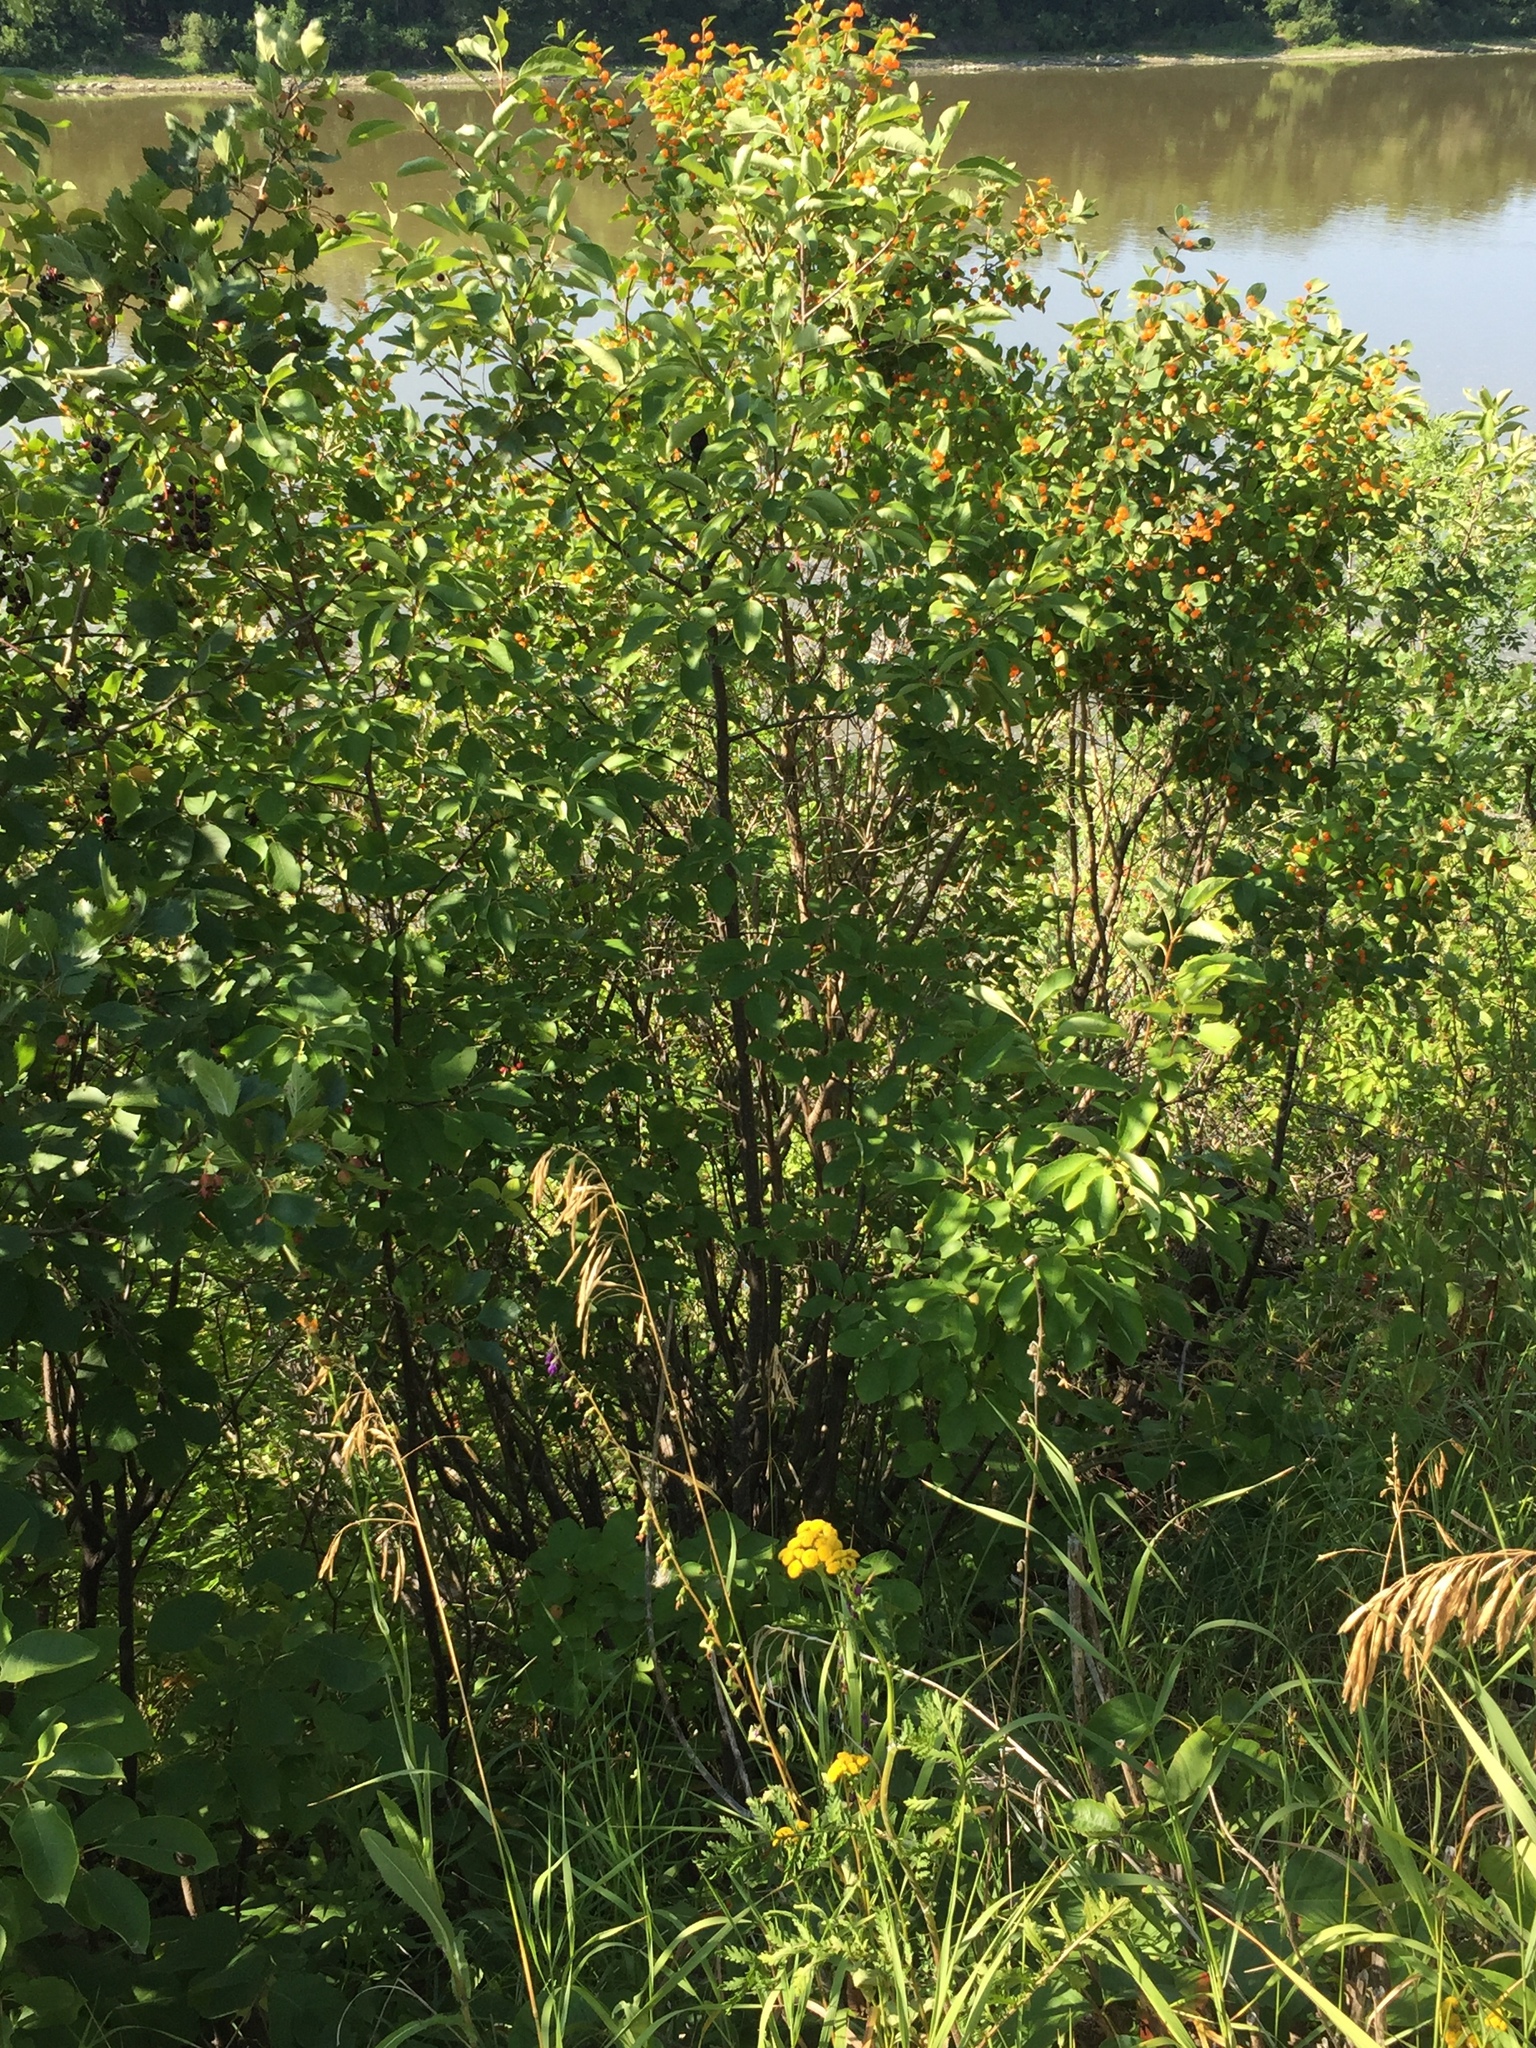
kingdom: Plantae
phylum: Tracheophyta
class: Magnoliopsida
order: Rosales
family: Rosaceae
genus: Prunus
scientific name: Prunus virginiana
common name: Chokecherry
